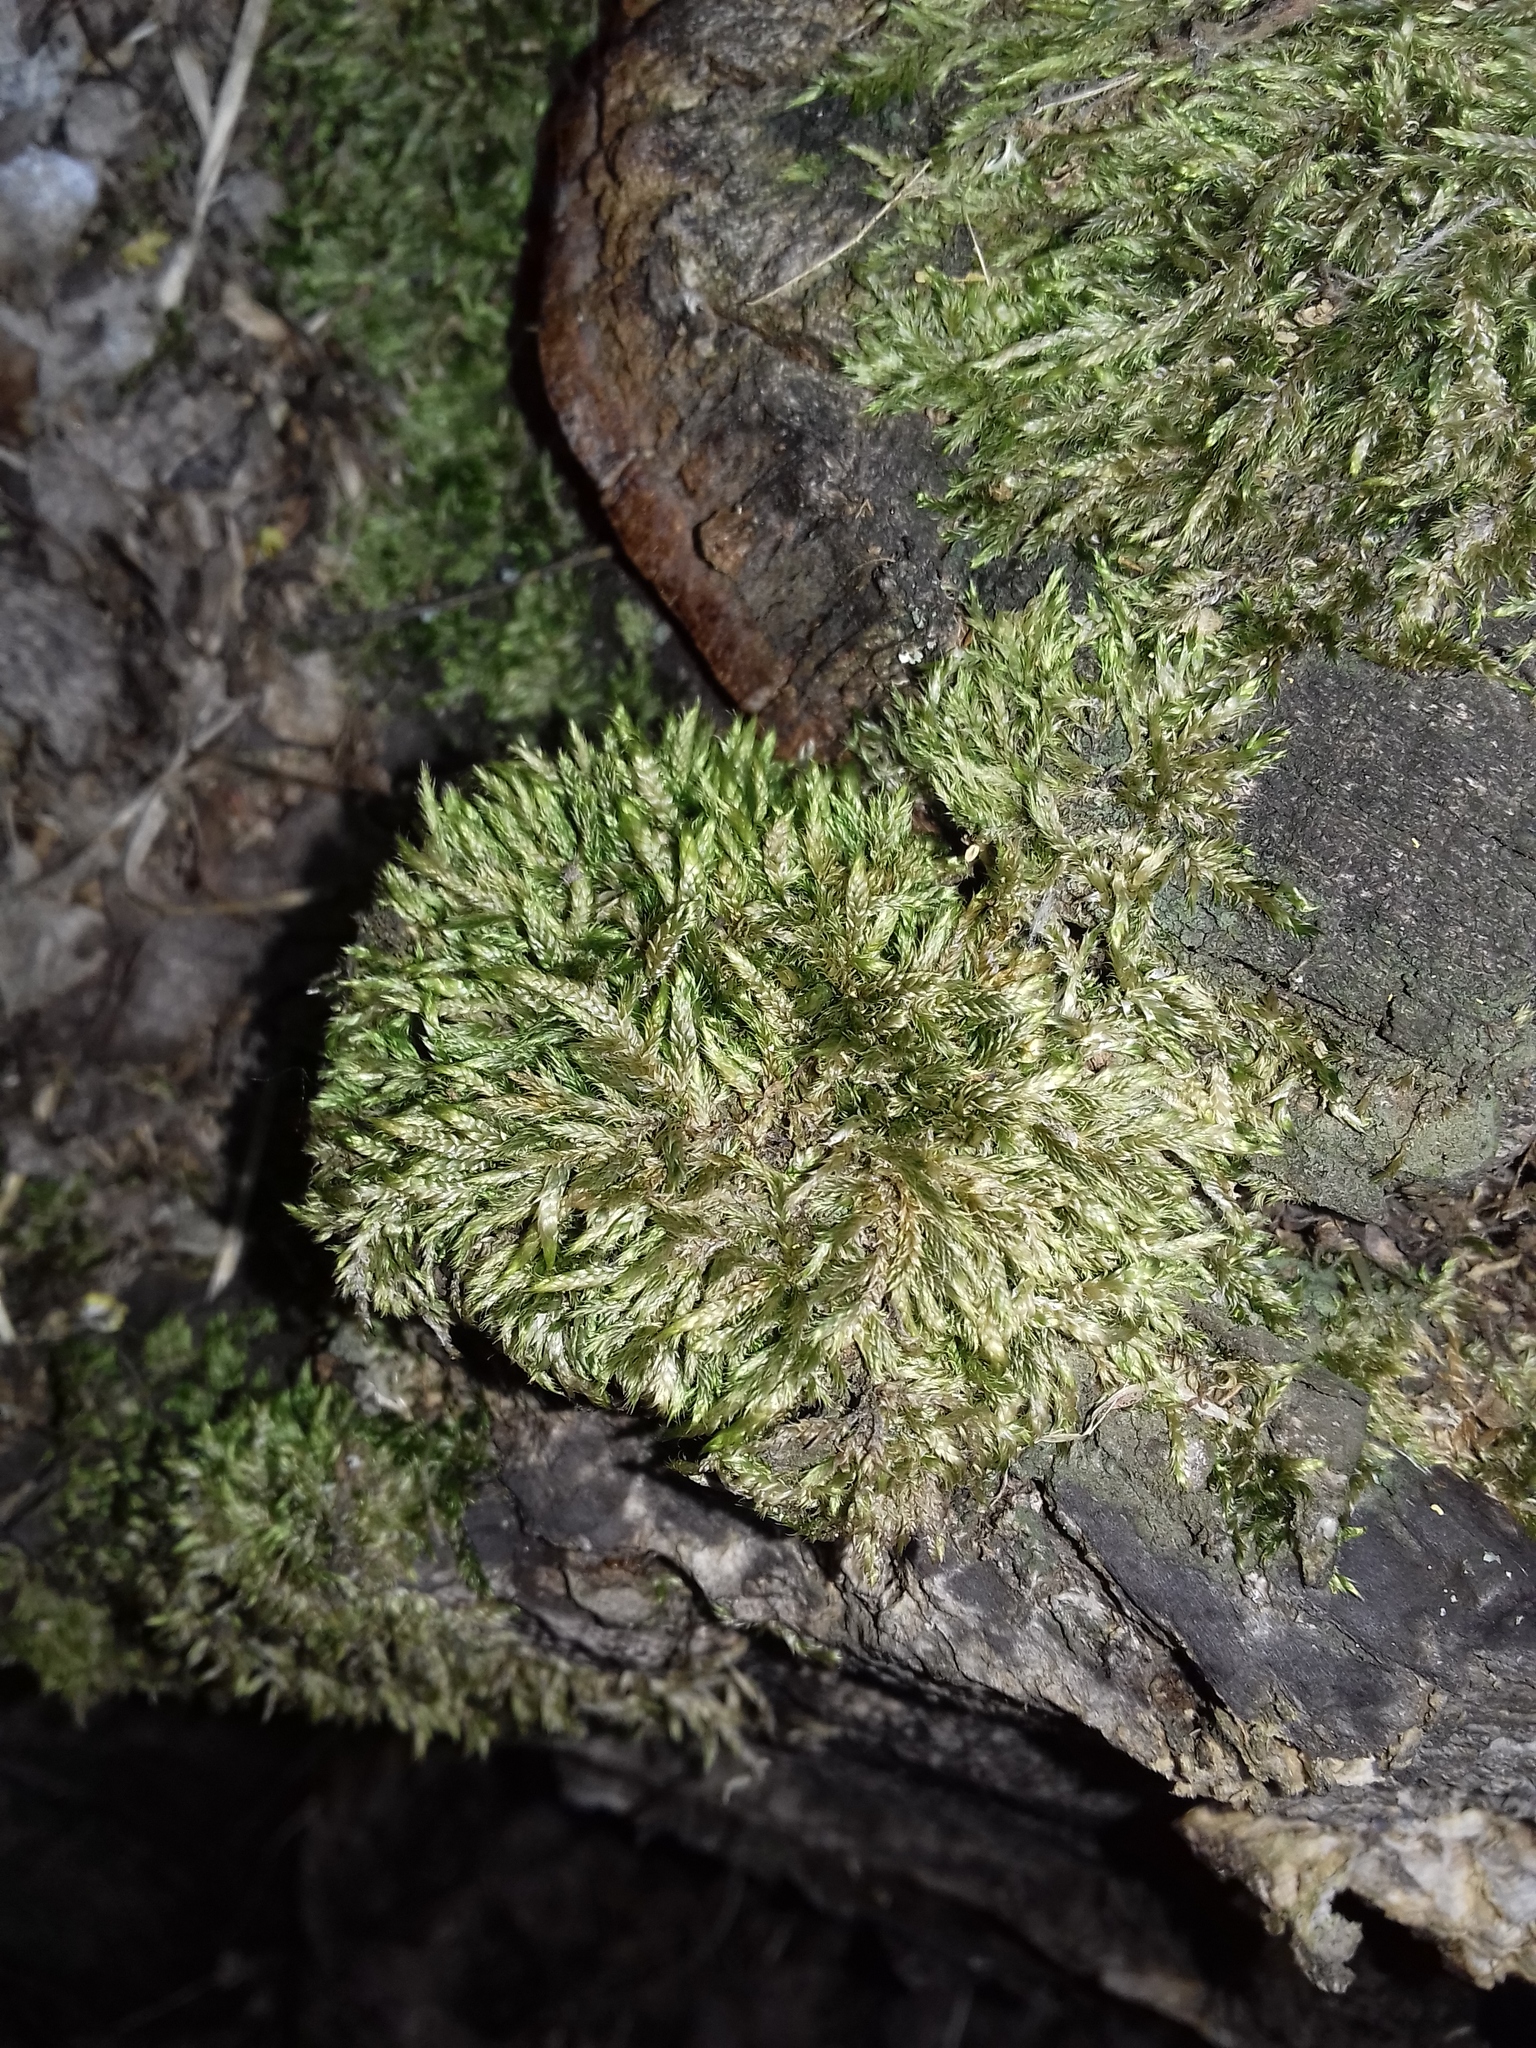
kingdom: Plantae
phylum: Bryophyta
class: Bryopsida
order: Hypnales
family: Hypnaceae
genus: Hypnum
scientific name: Hypnum cupressiforme
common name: Cypress-leaved plait-moss
